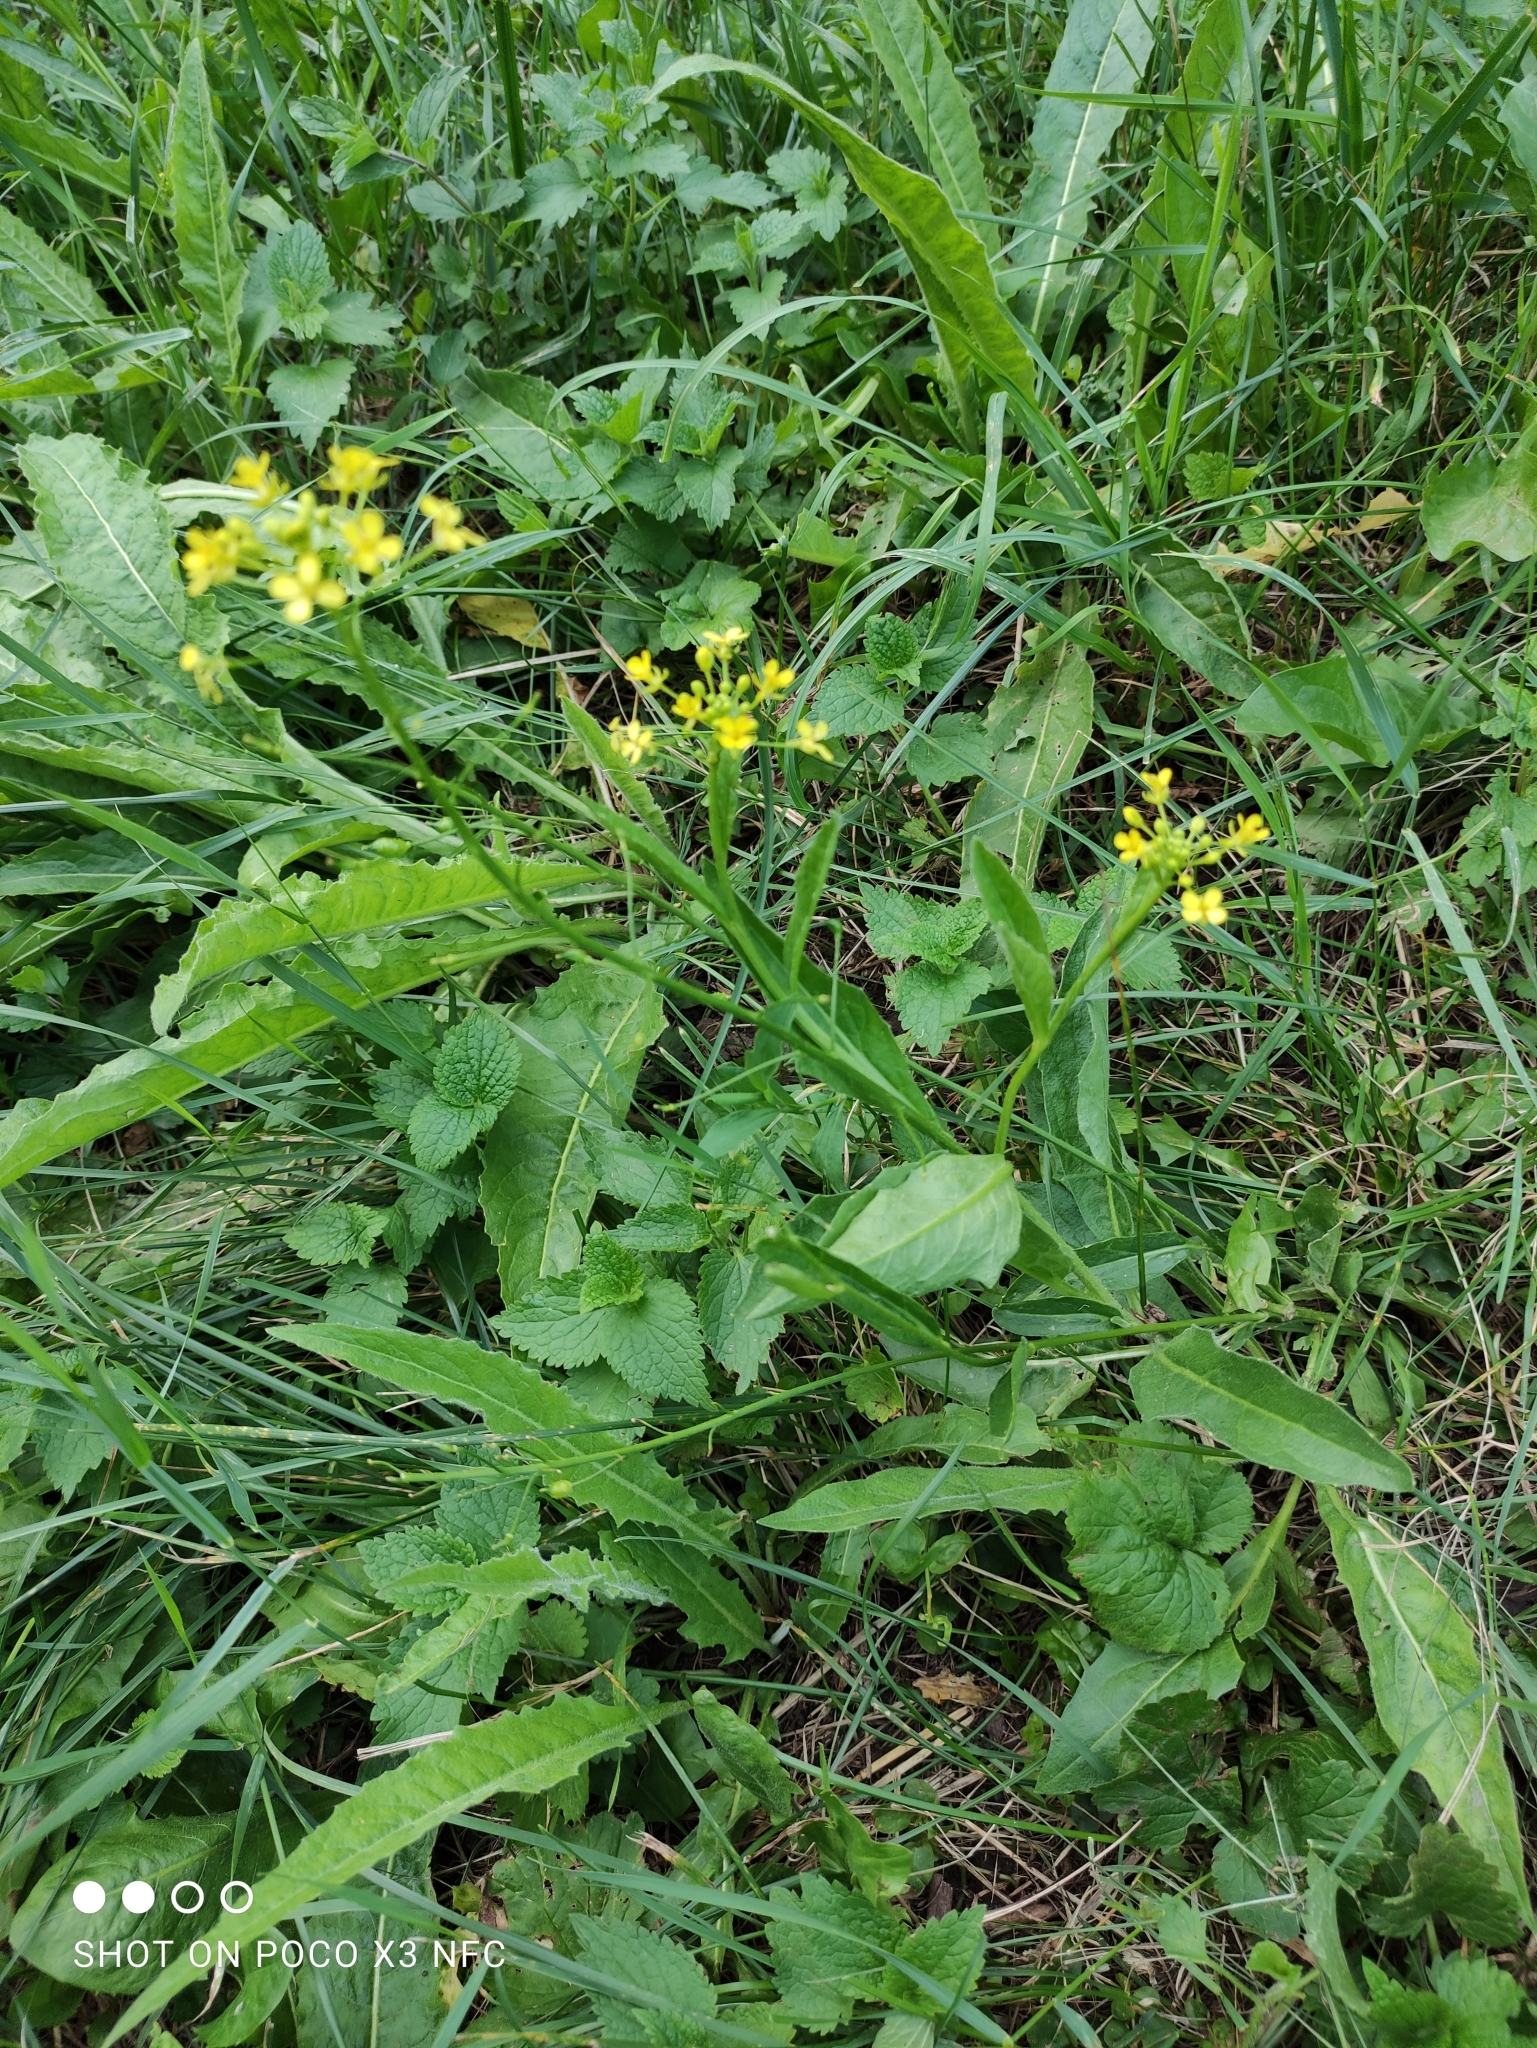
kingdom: Plantae
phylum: Tracheophyta
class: Magnoliopsida
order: Brassicales
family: Brassicaceae
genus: Bunias
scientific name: Bunias orientalis
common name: Warty-cabbage
